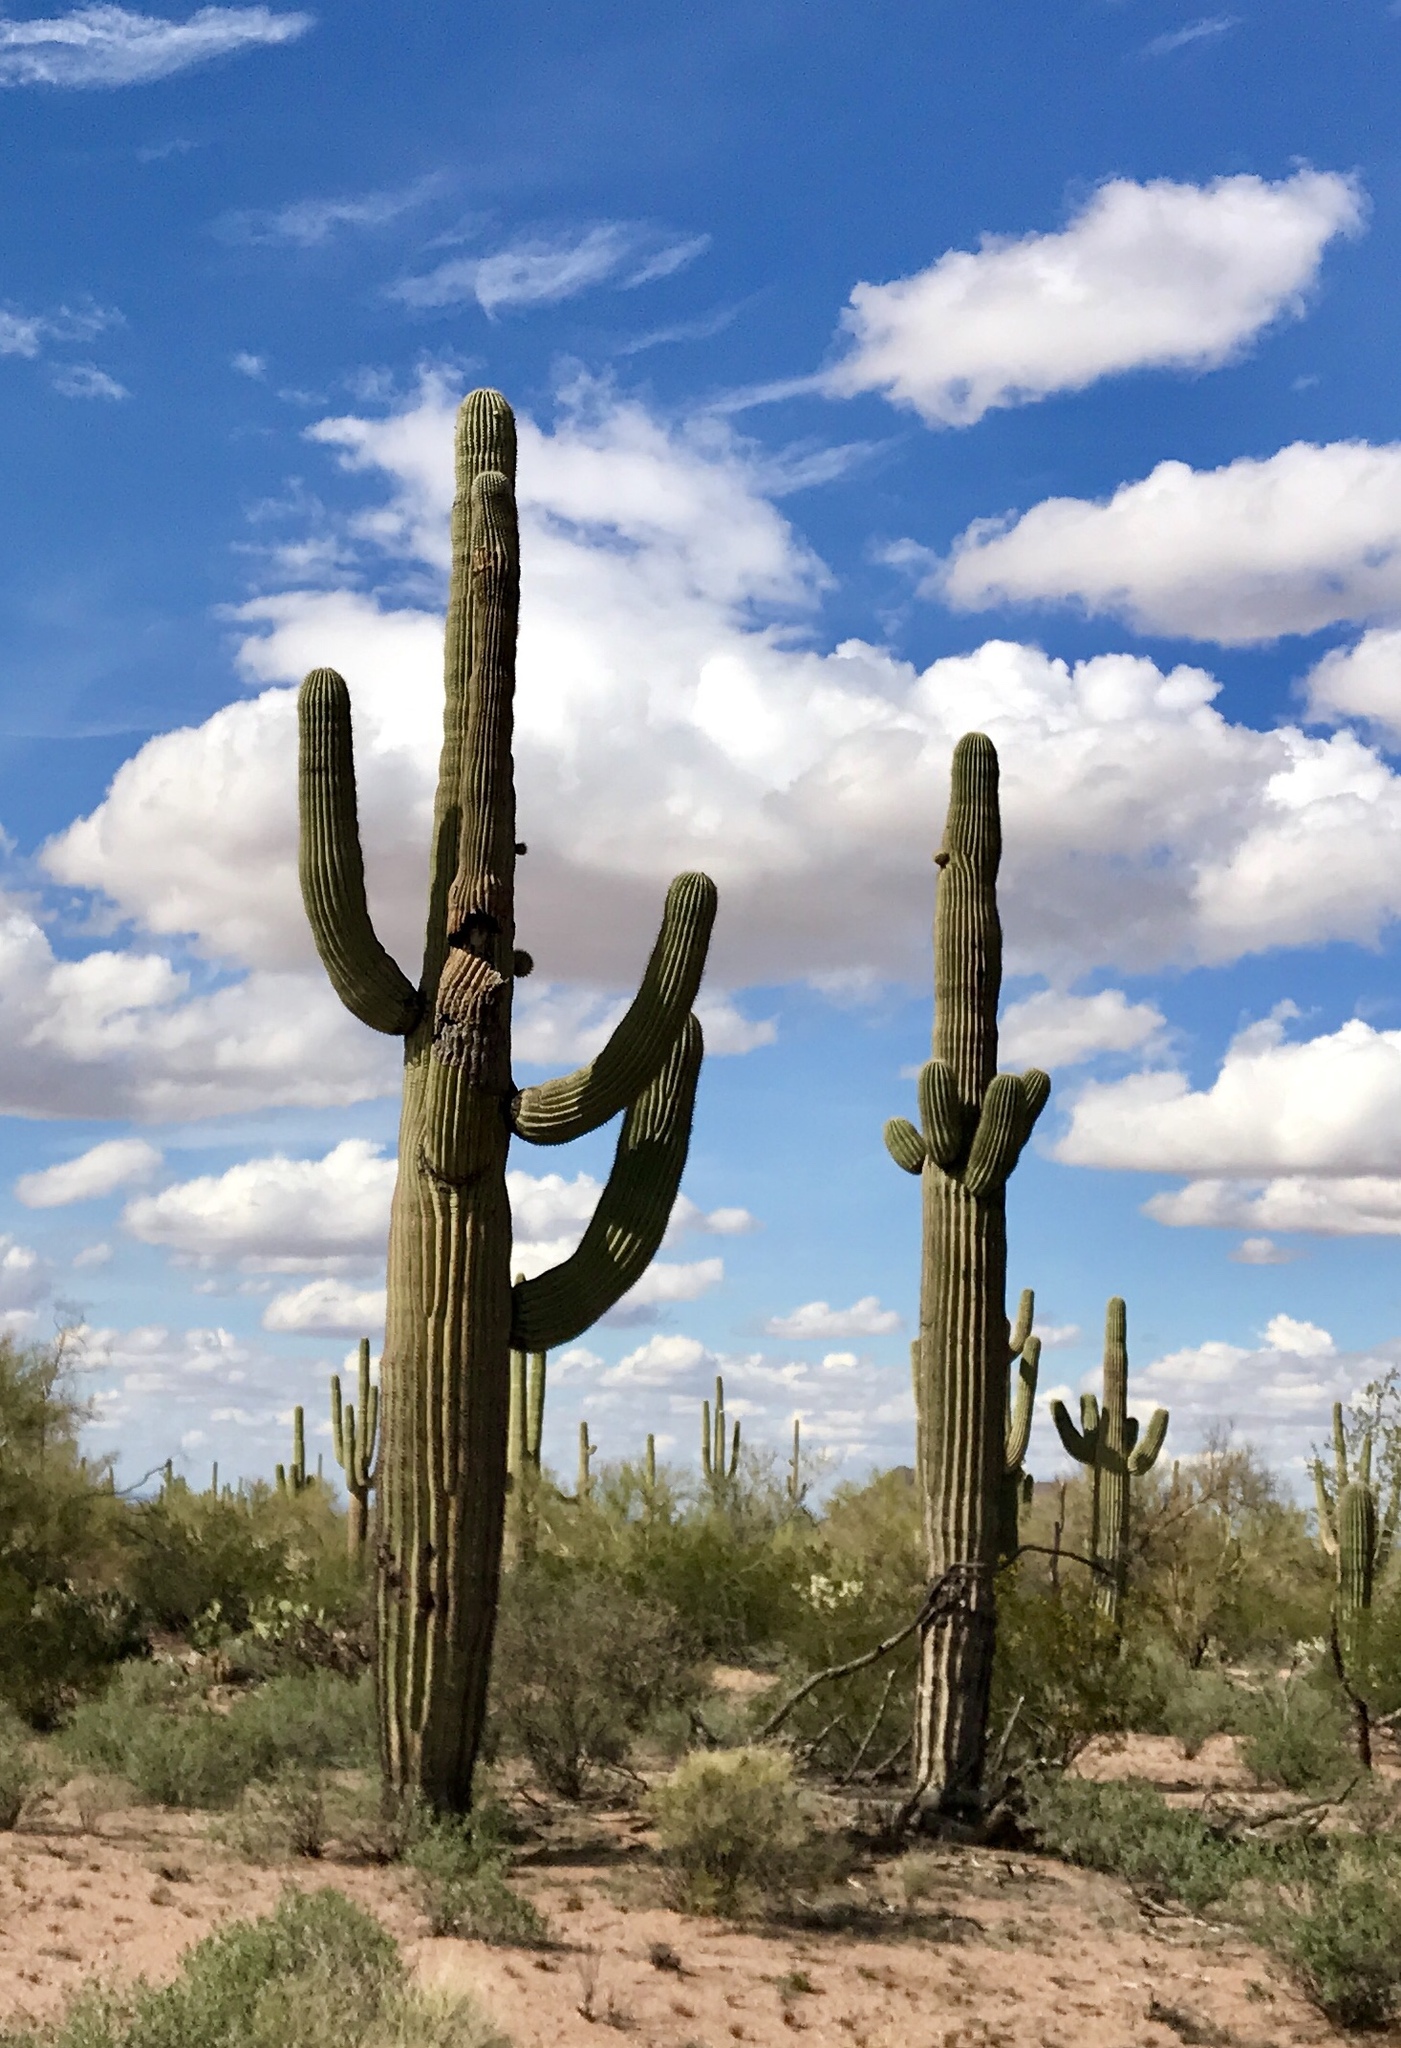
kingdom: Plantae
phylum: Tracheophyta
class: Magnoliopsida
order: Caryophyllales
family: Cactaceae
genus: Carnegiea
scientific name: Carnegiea gigantea
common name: Saguaro
